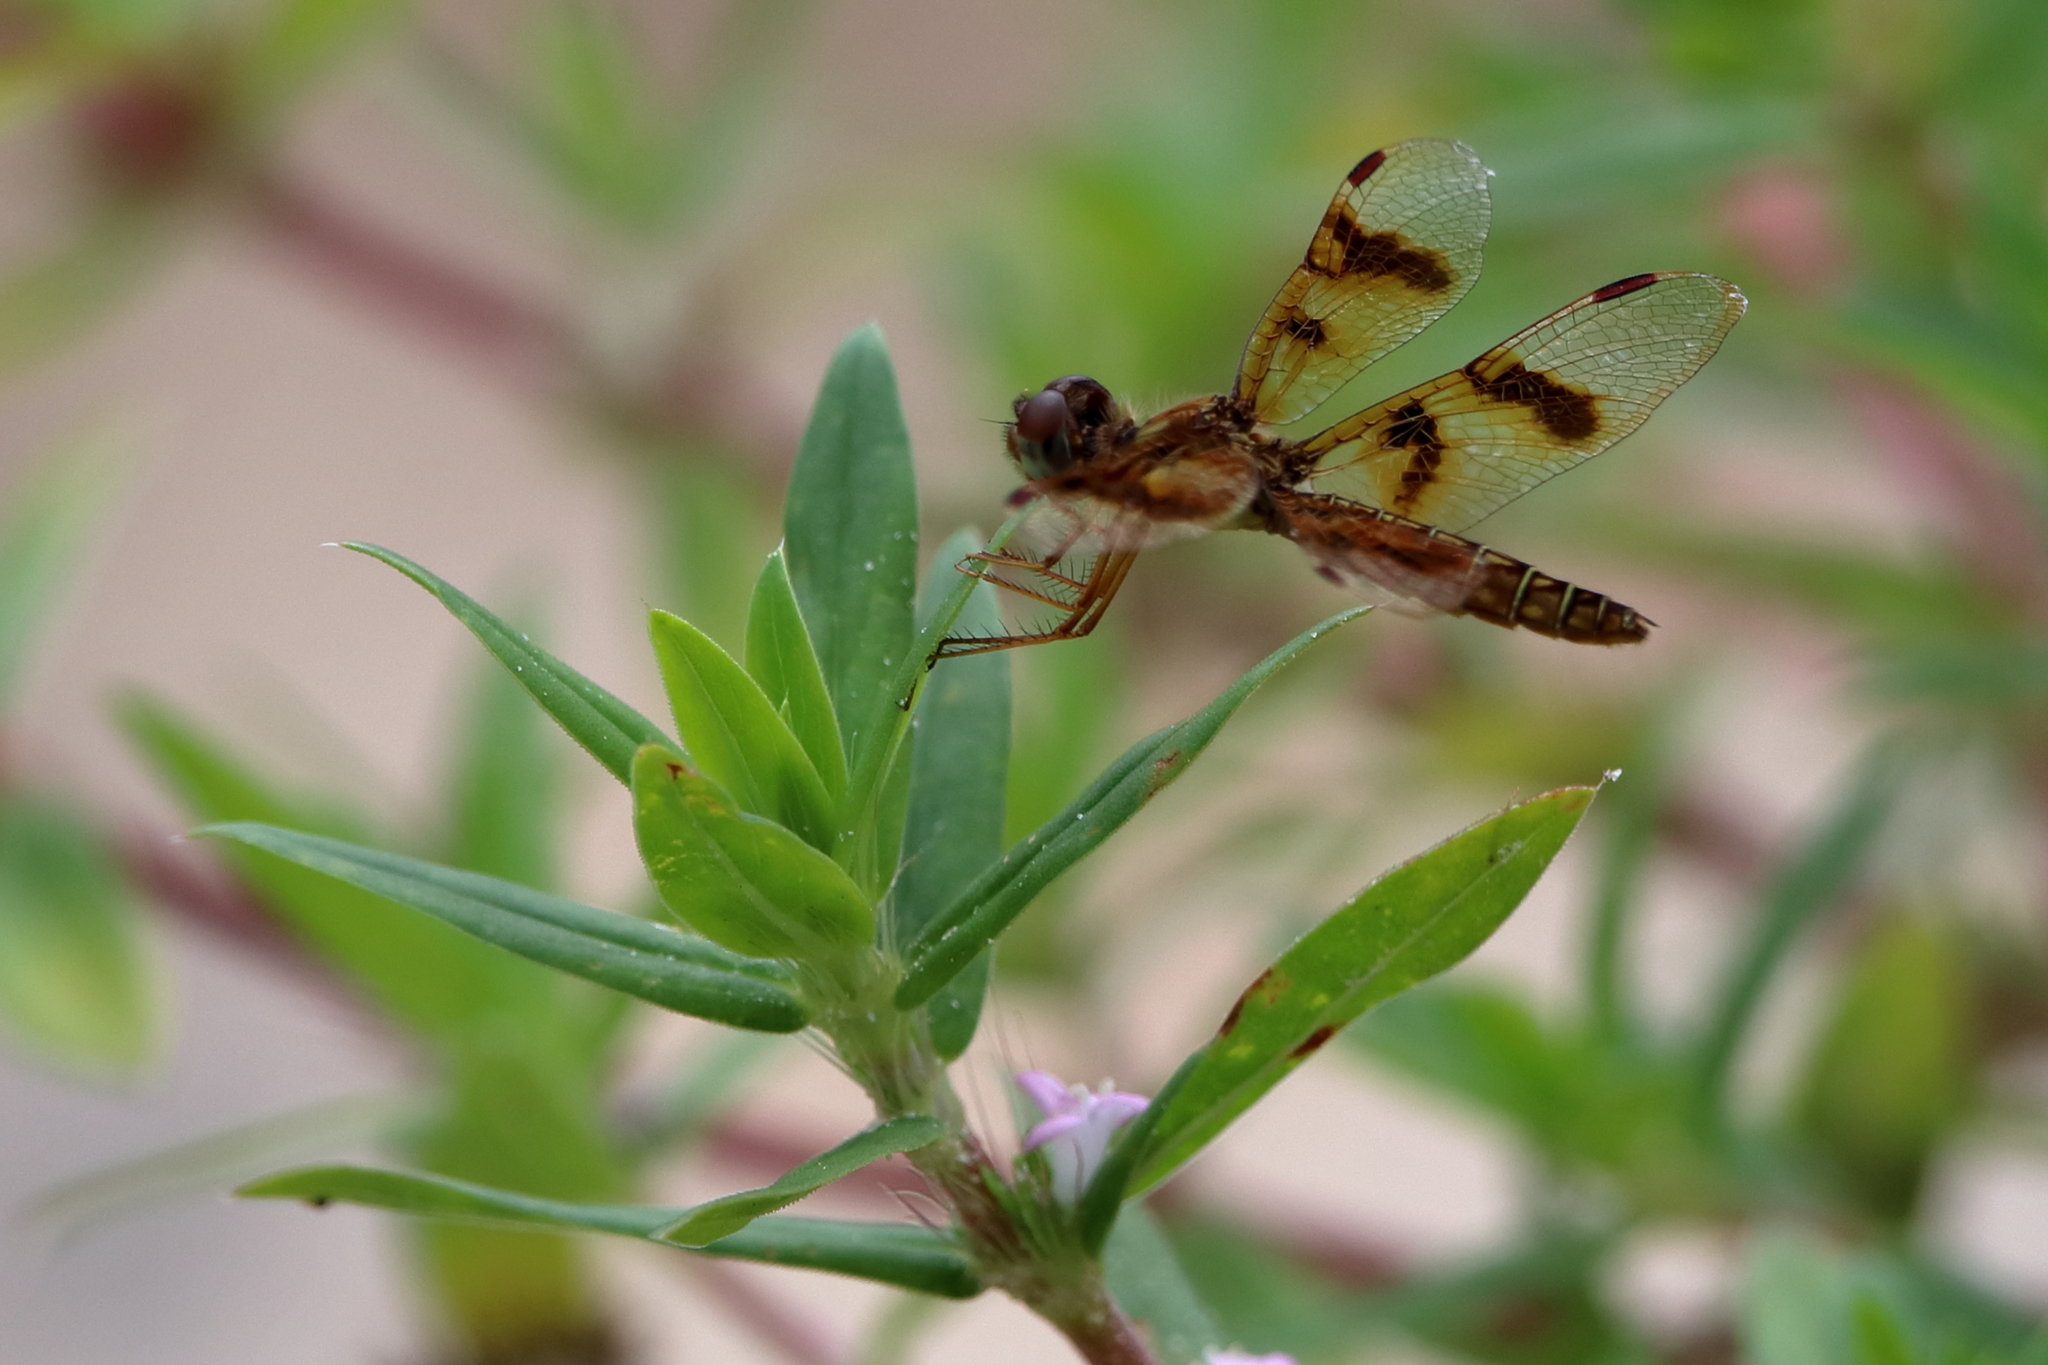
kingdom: Animalia
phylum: Arthropoda
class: Insecta
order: Odonata
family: Libellulidae
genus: Perithemis
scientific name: Perithemis tenera
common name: Eastern amberwing
